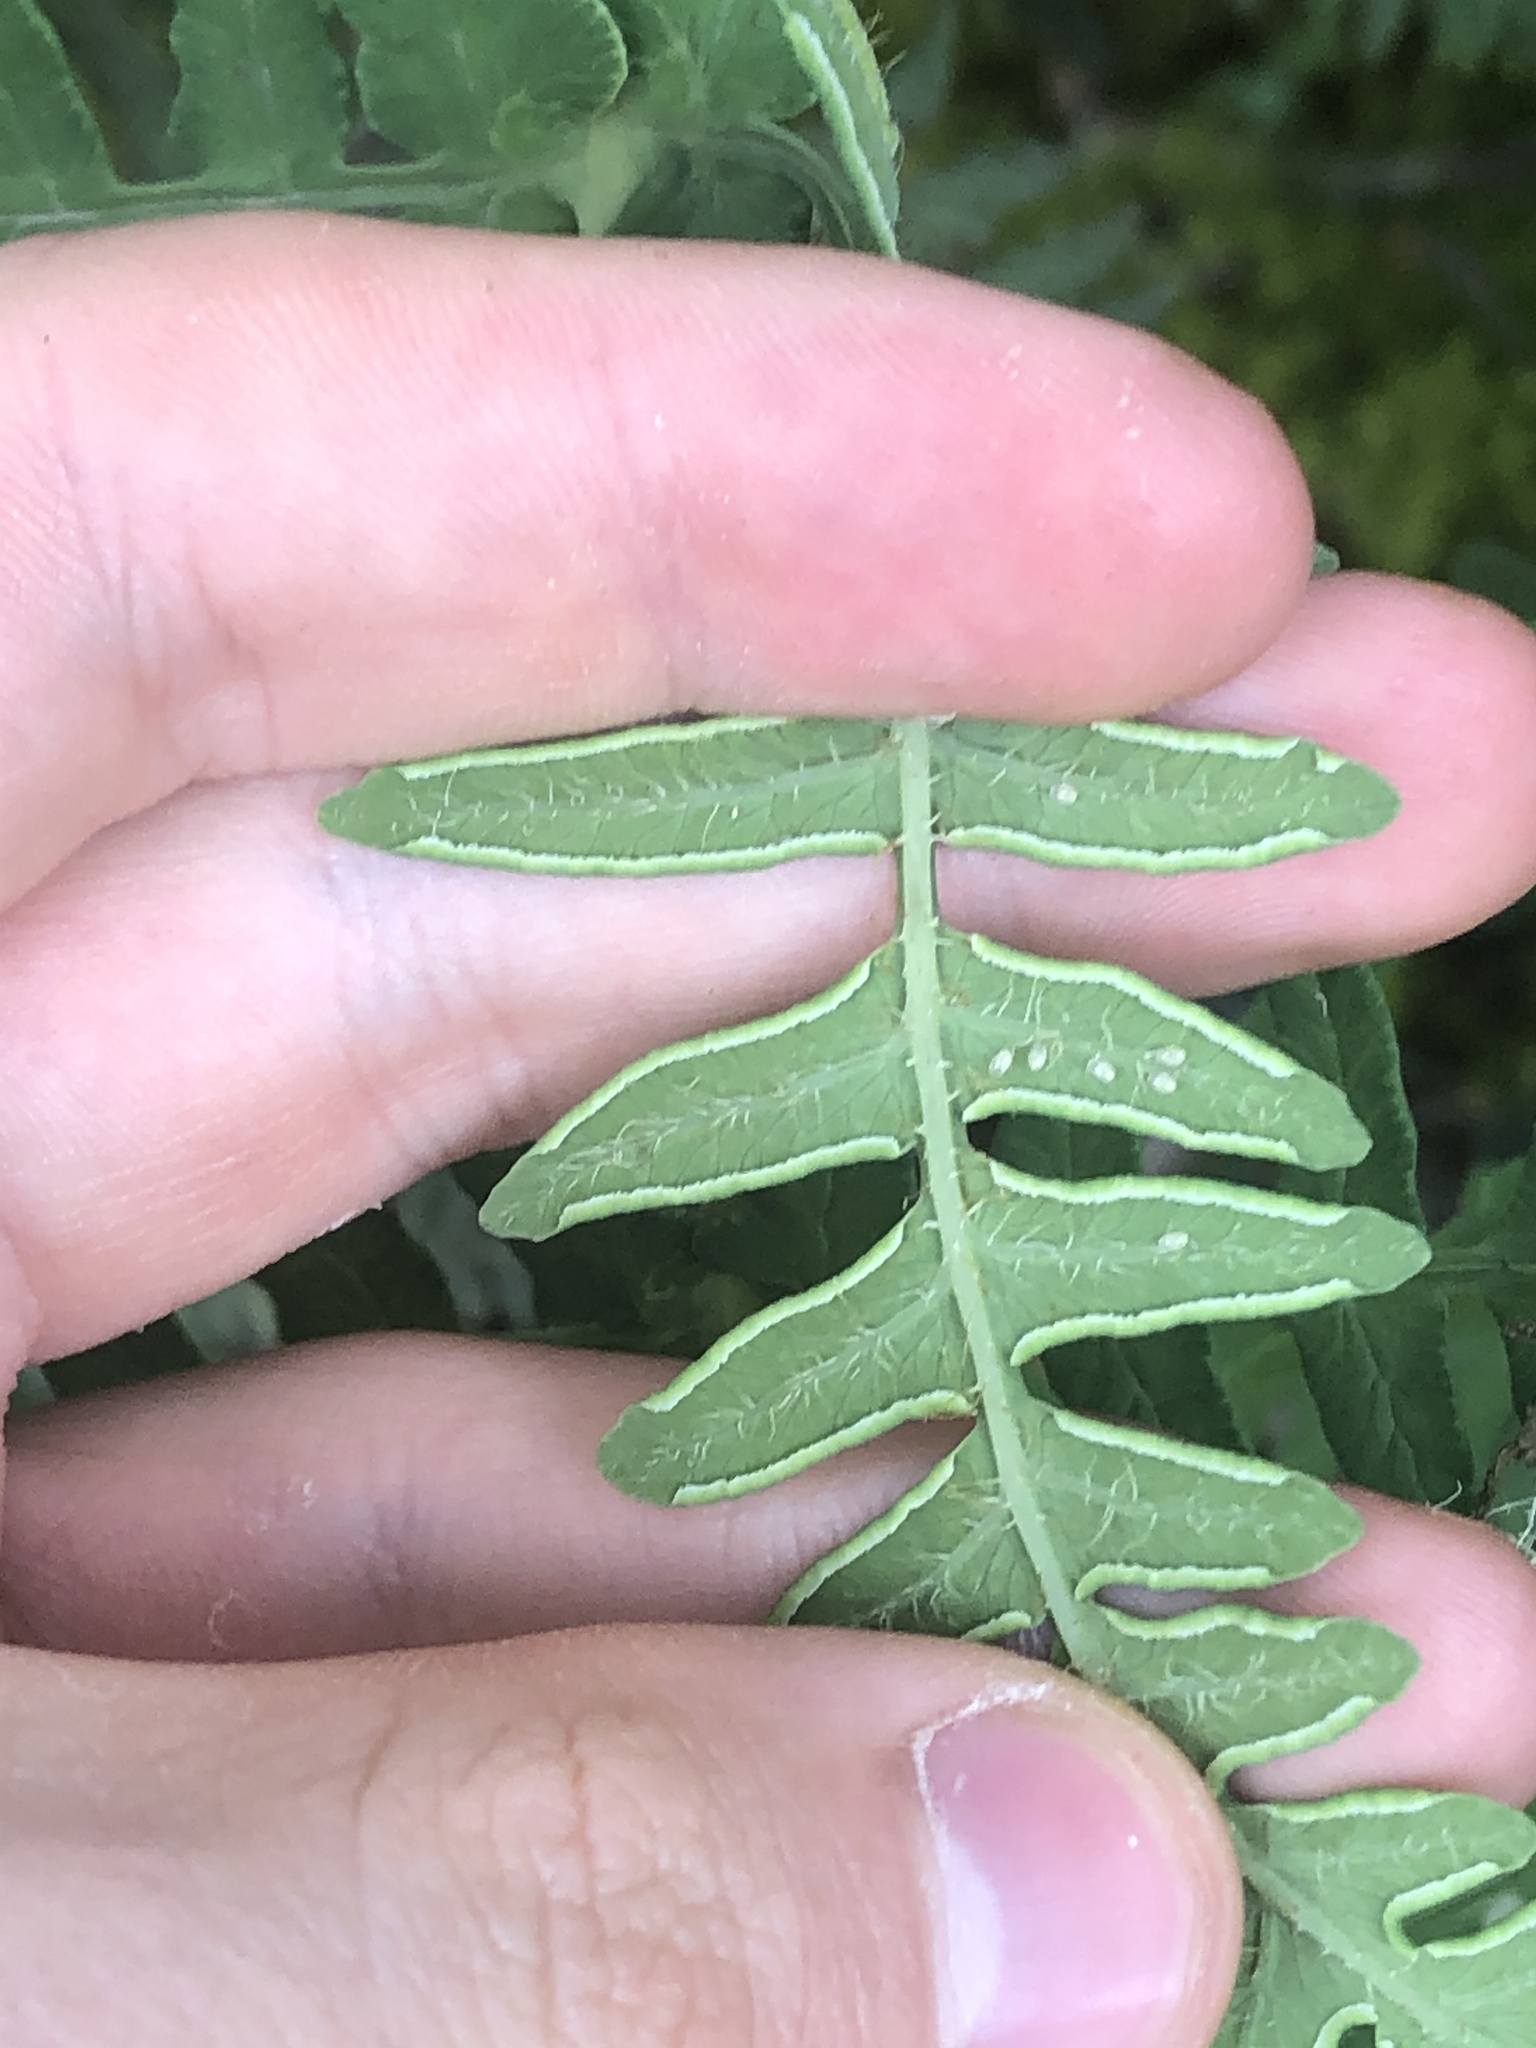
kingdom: Plantae
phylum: Tracheophyta
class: Polypodiopsida
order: Polypodiales
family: Dennstaedtiaceae
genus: Histiopteris
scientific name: Histiopteris incisa
